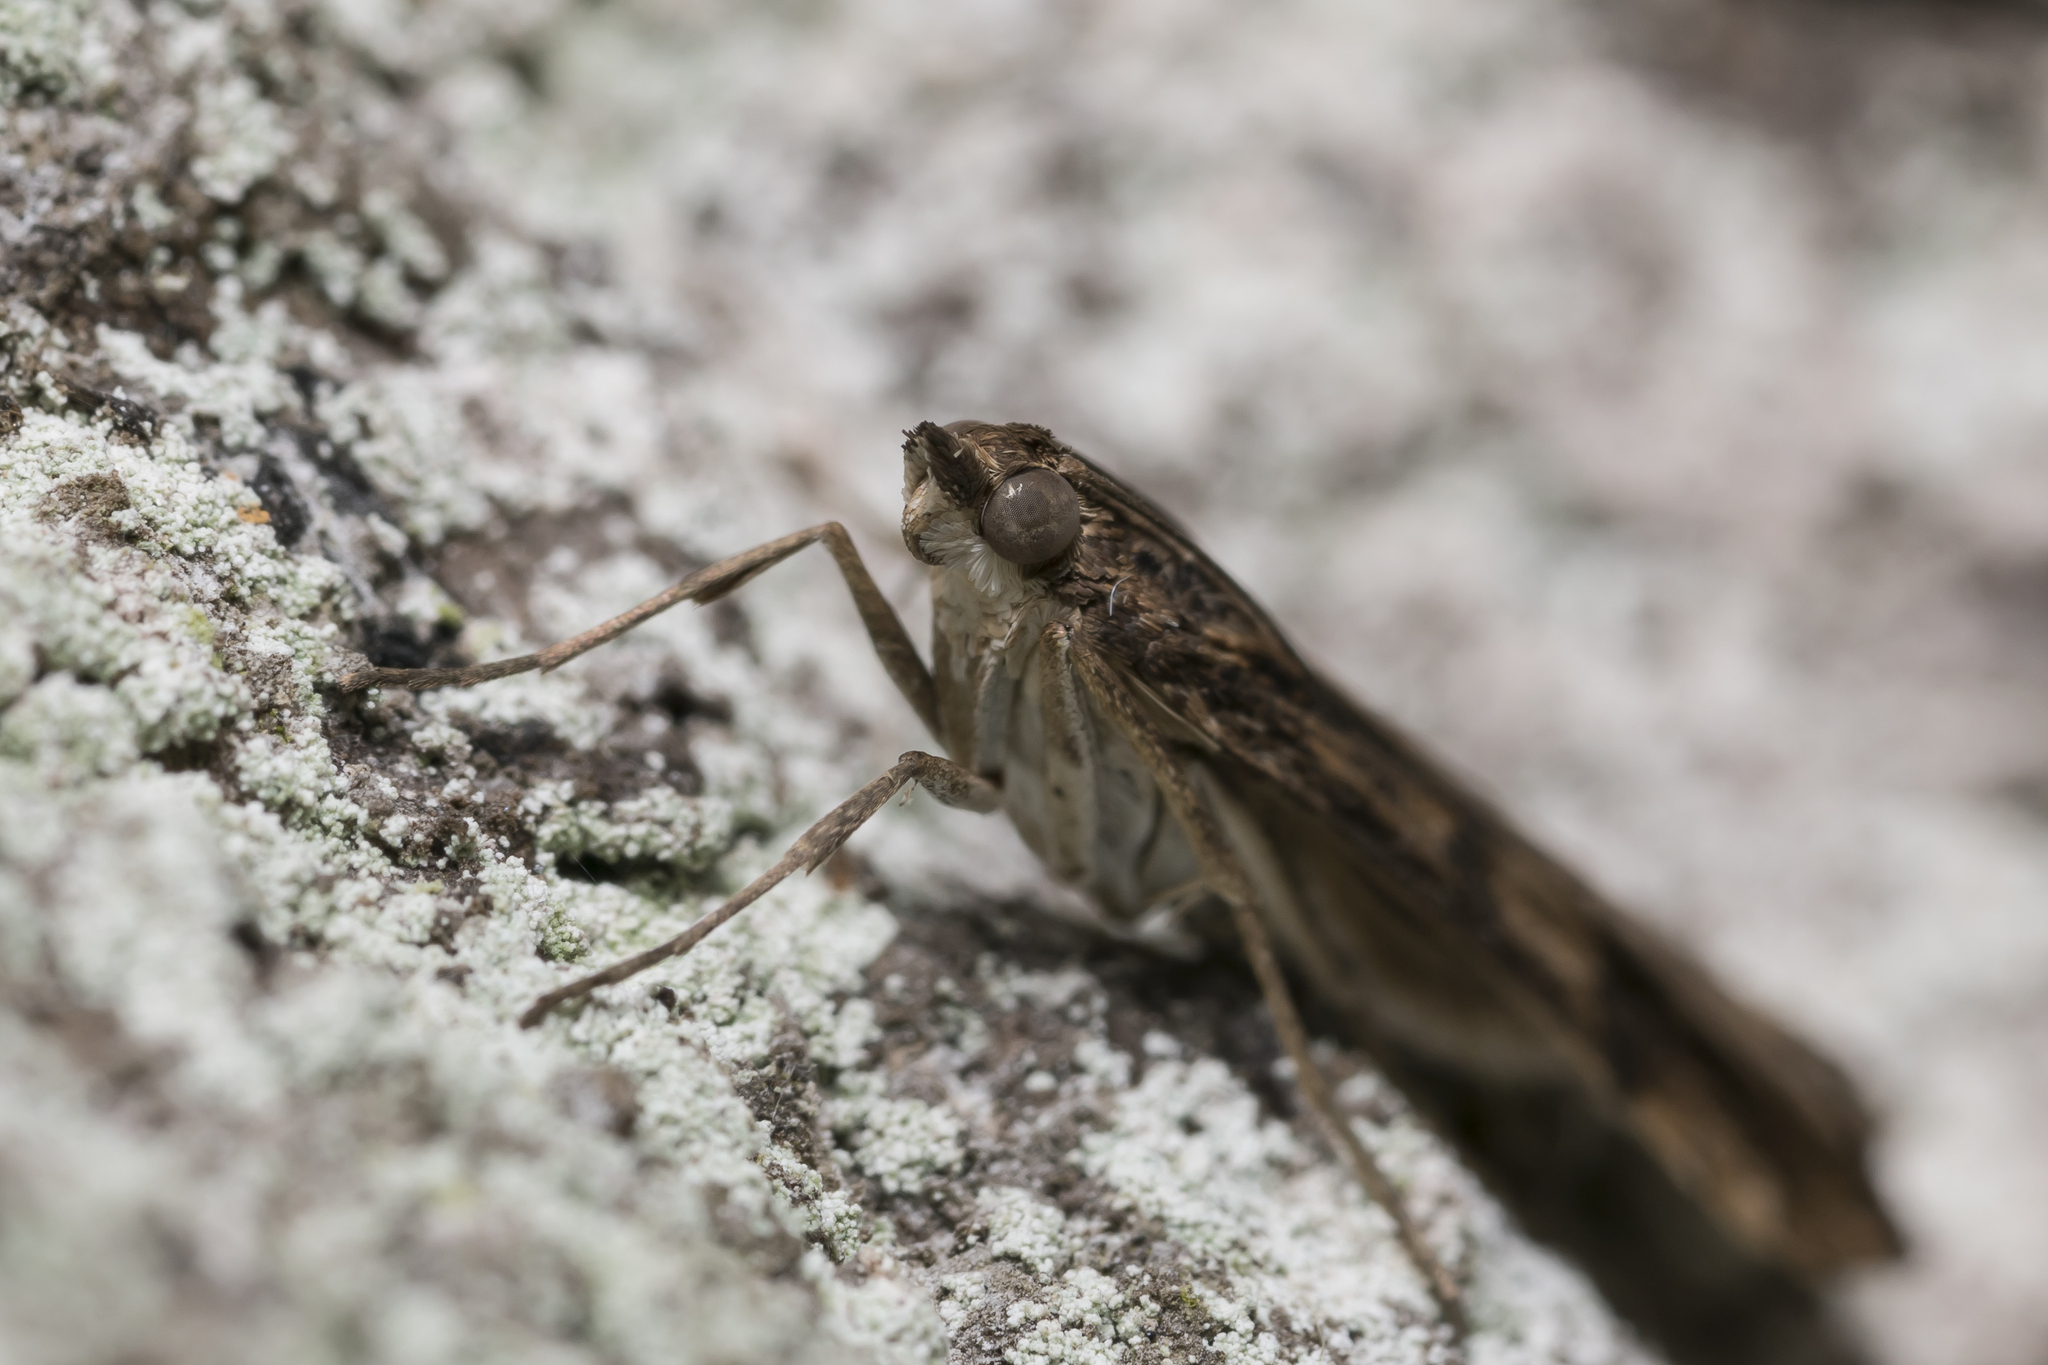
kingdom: Animalia
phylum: Arthropoda
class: Insecta
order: Lepidoptera
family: Crambidae
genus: Nomophila
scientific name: Nomophila noctuella
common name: Rush veneer
